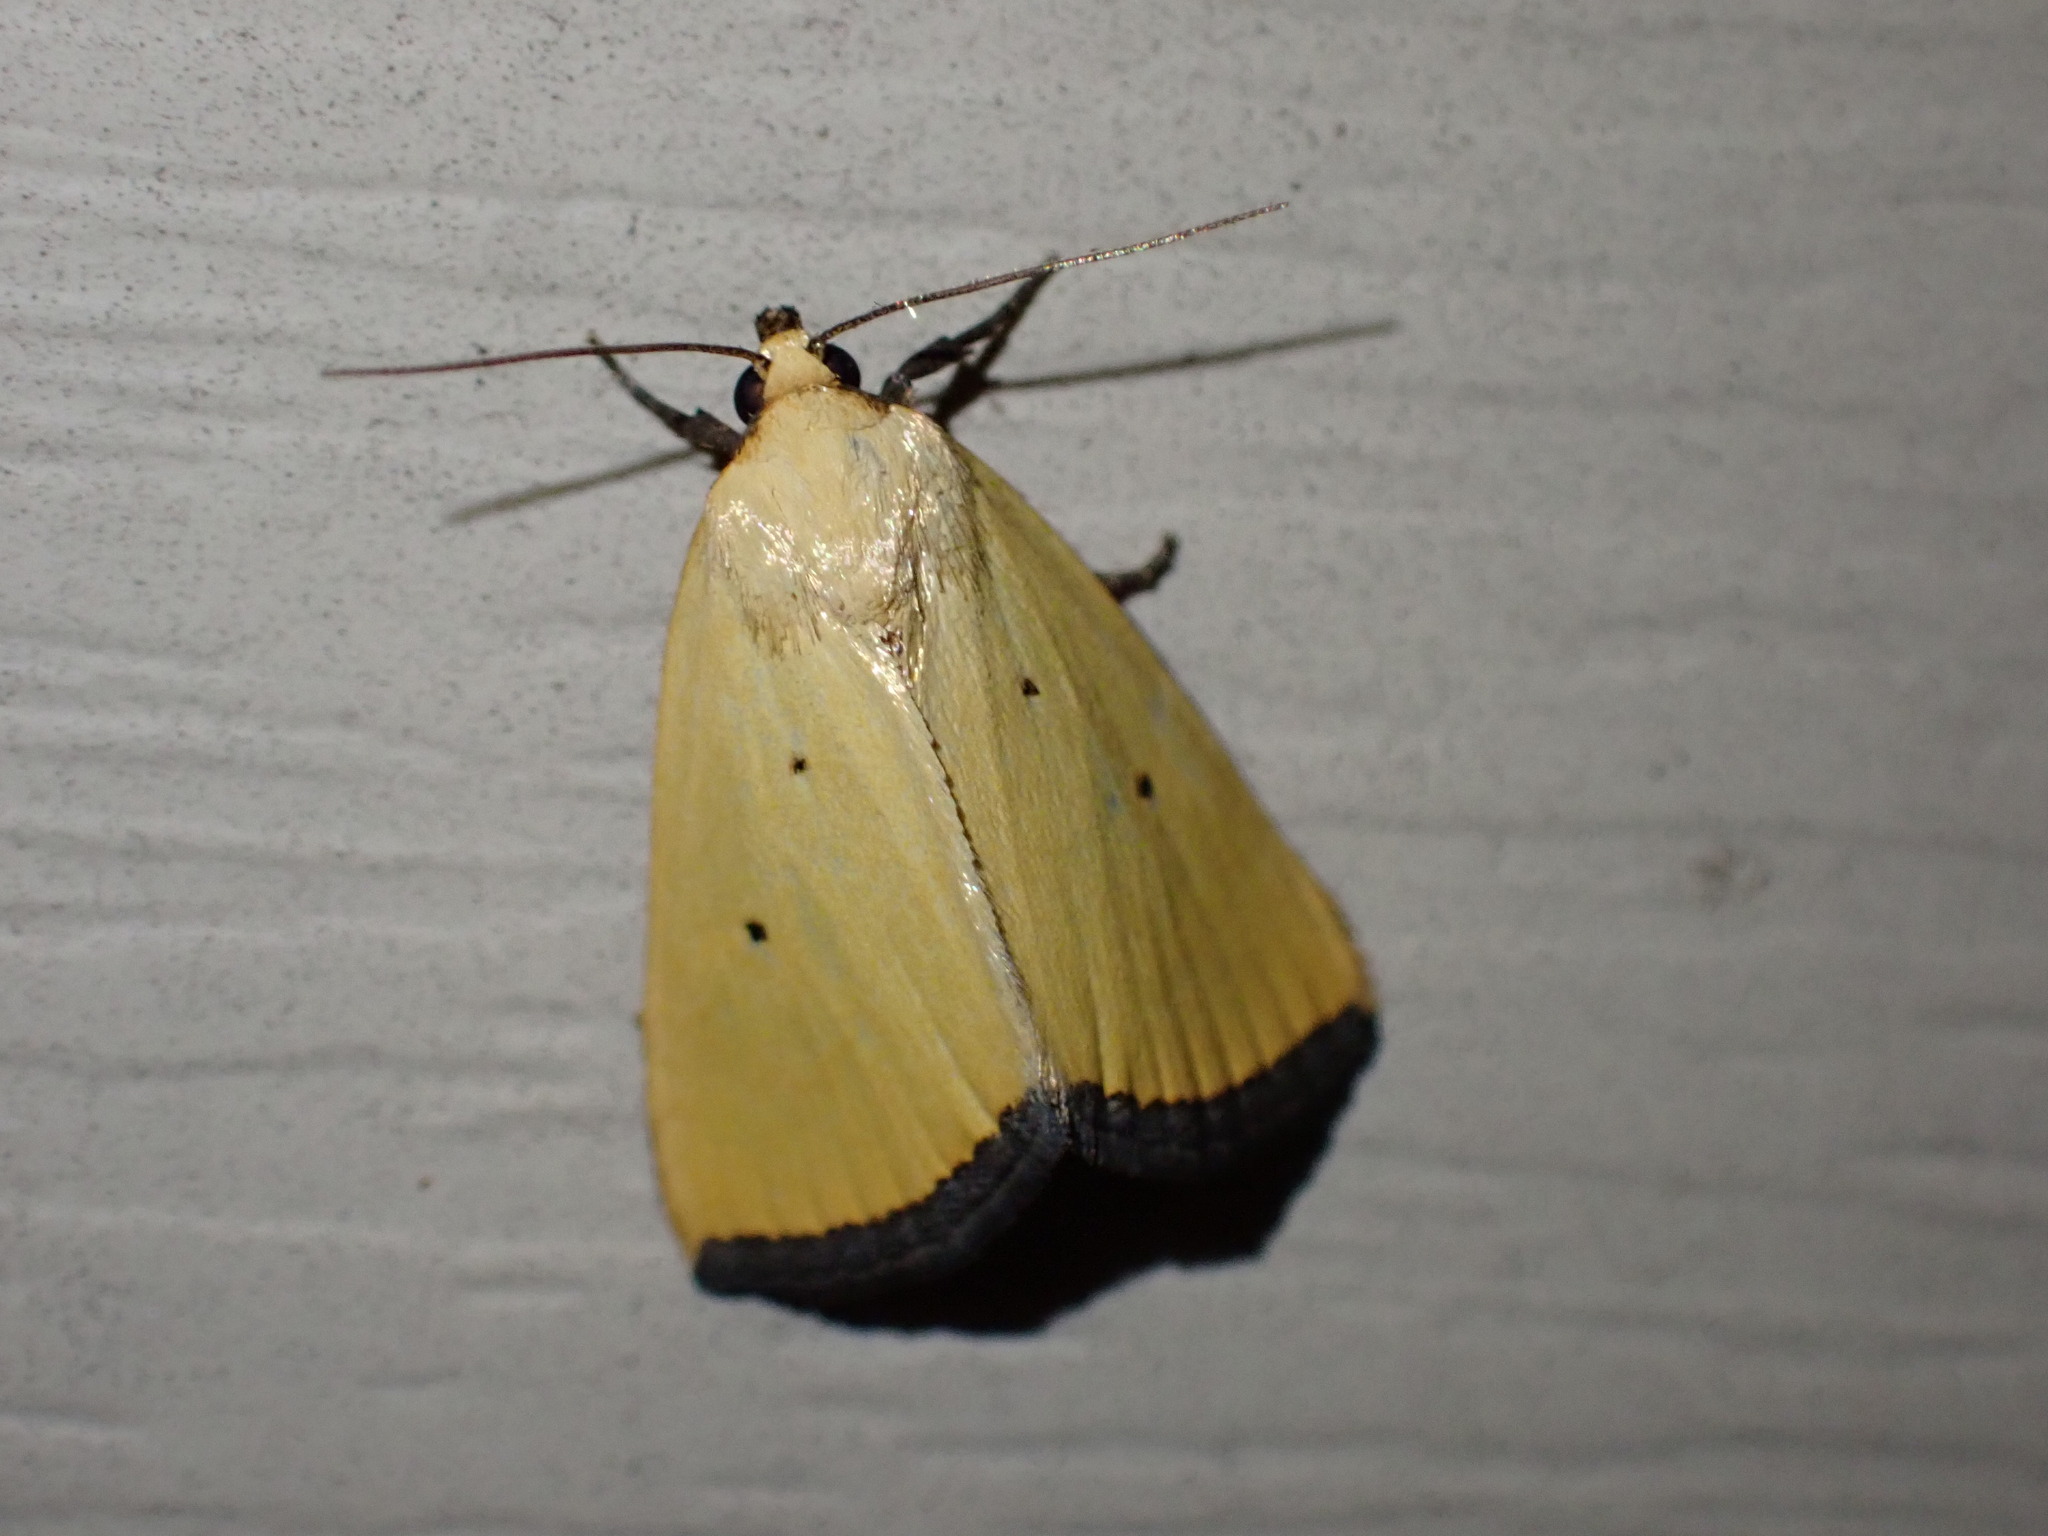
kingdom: Animalia
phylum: Arthropoda
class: Insecta
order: Lepidoptera
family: Noctuidae
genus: Marimatha
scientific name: Marimatha nigrofimbria
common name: Black-bordered lemon moth
